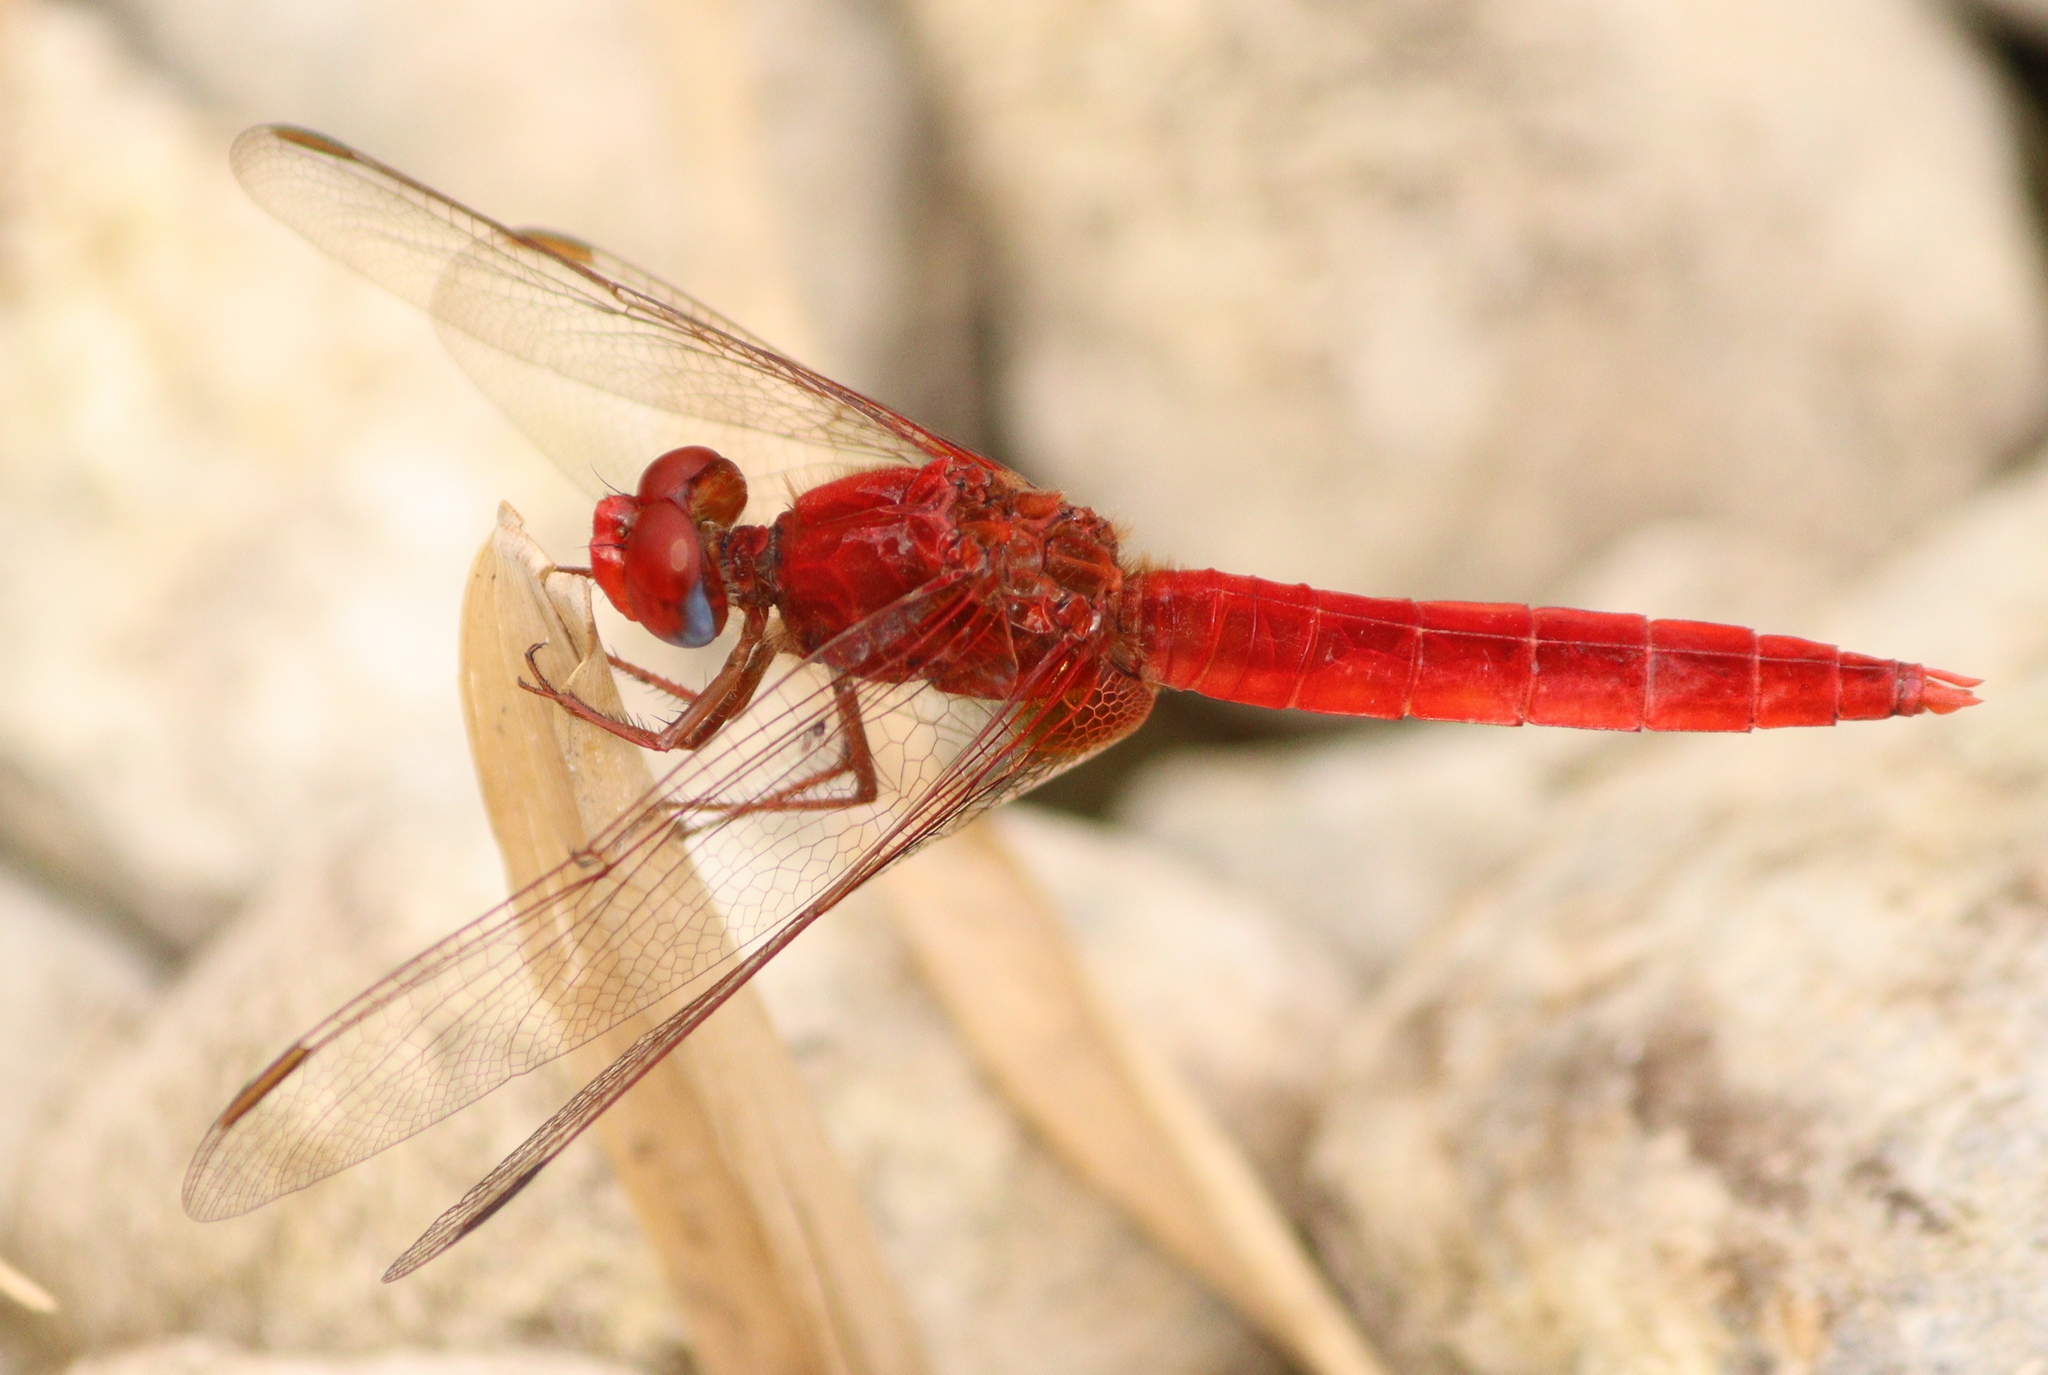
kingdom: Animalia
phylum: Arthropoda
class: Insecta
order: Odonata
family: Libellulidae
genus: Crocothemis
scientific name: Crocothemis erythraea
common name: Scarlet dragonfly
